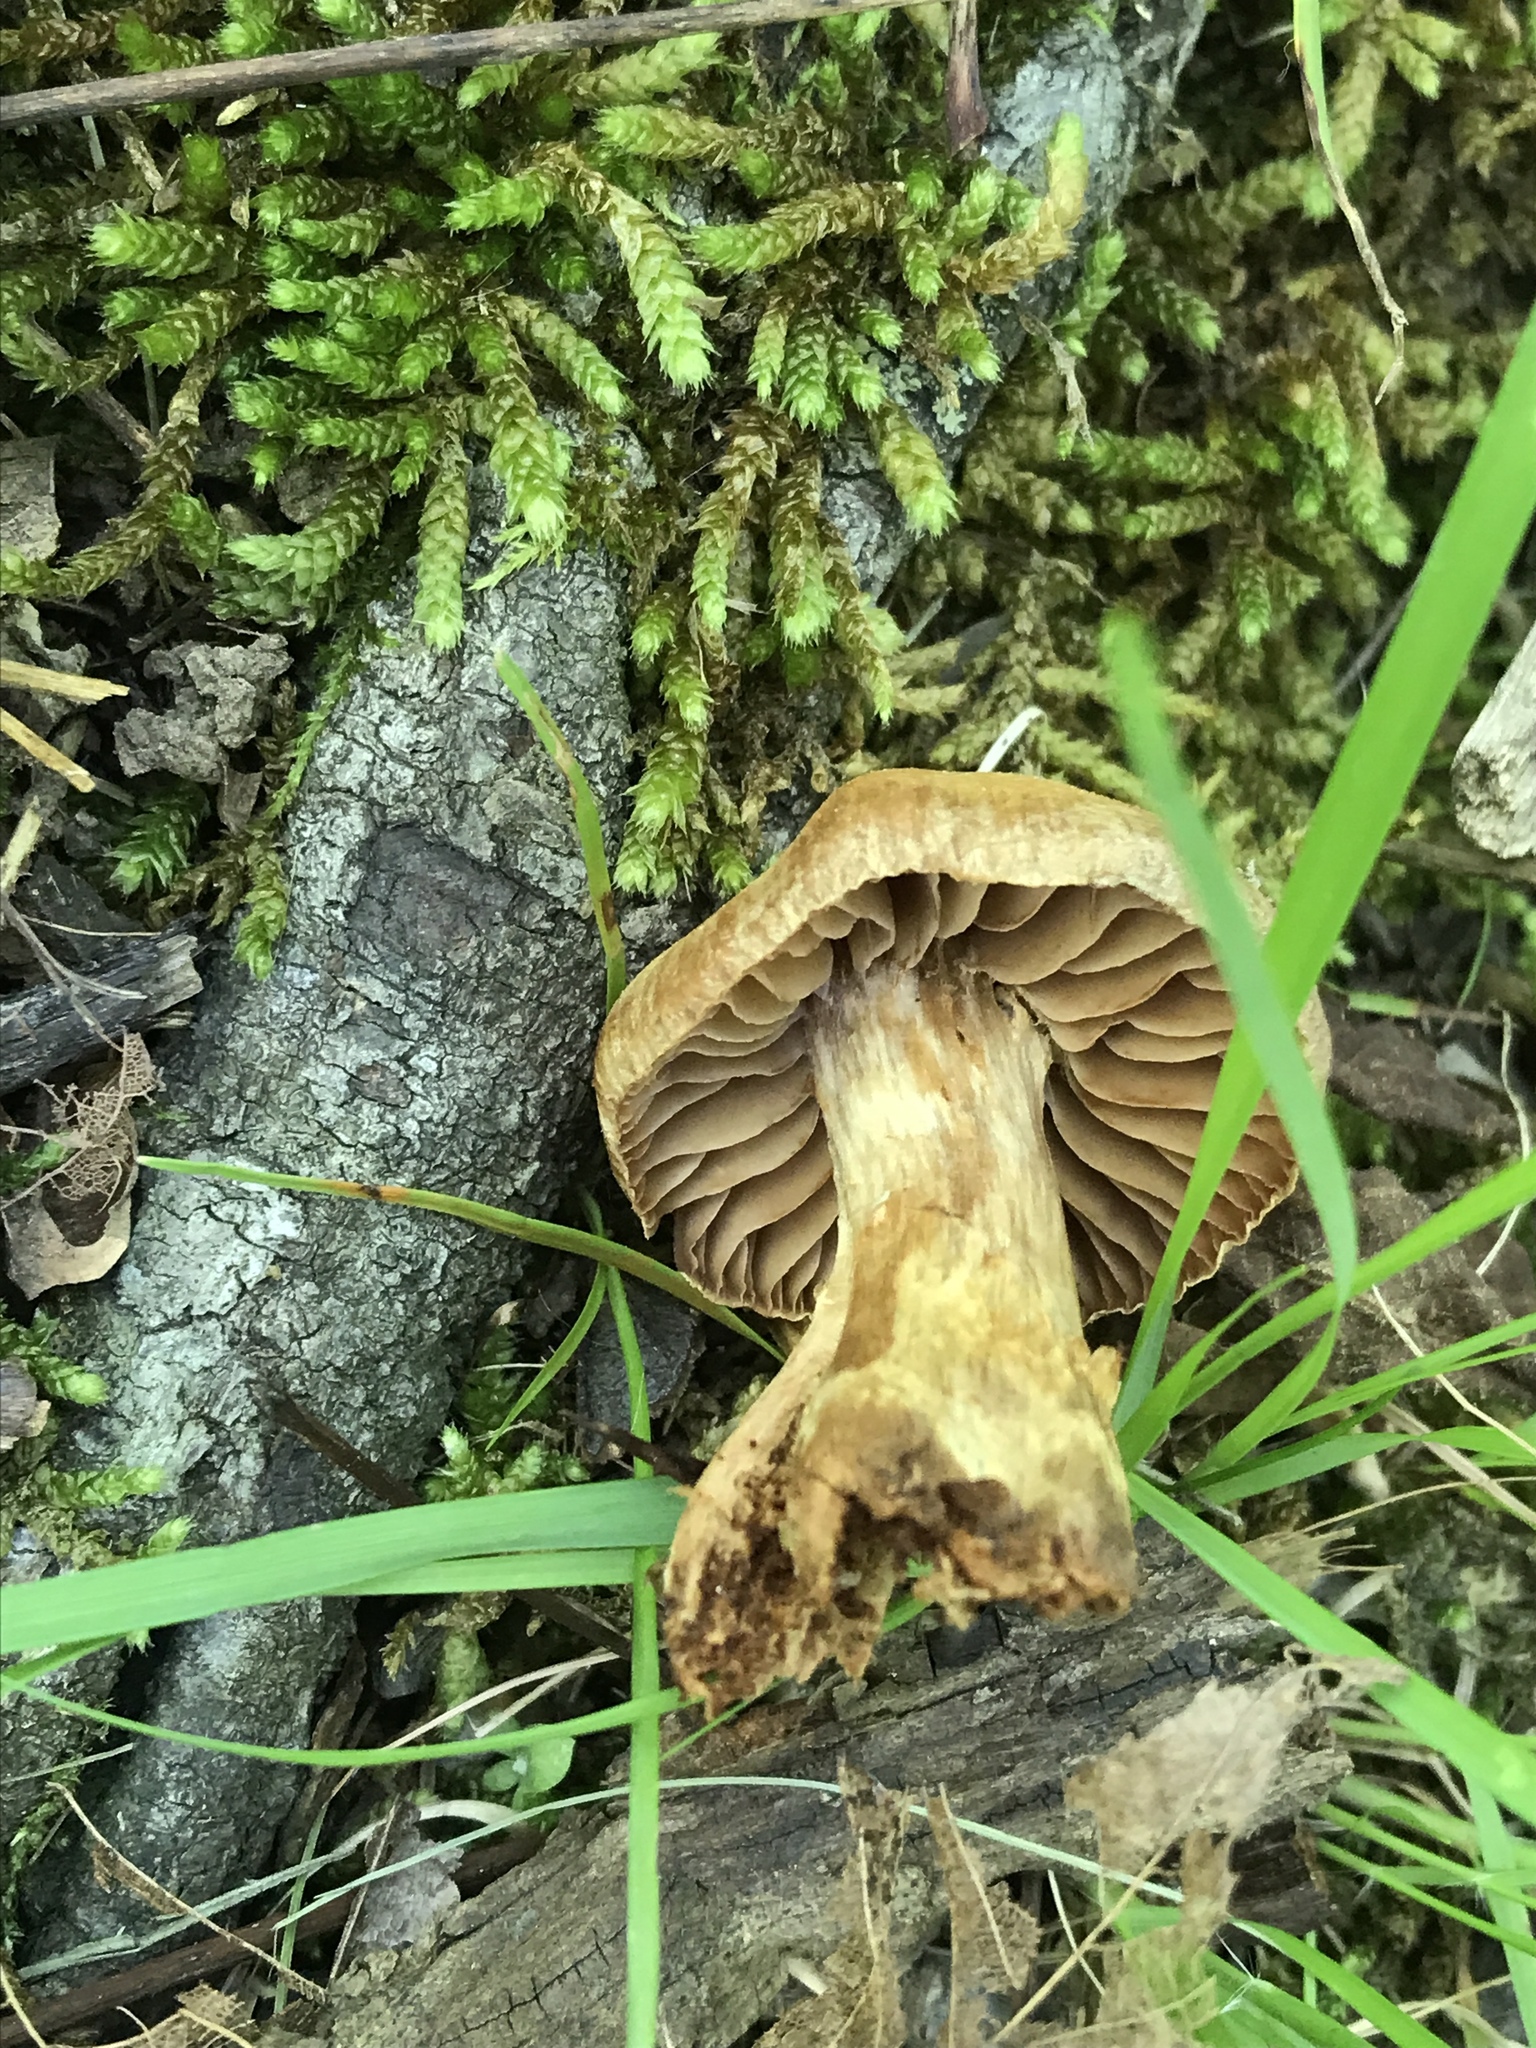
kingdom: Fungi
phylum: Basidiomycota
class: Agaricomycetes
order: Agaricales
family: Cortinariaceae
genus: Cortinarius
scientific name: Cortinarius
